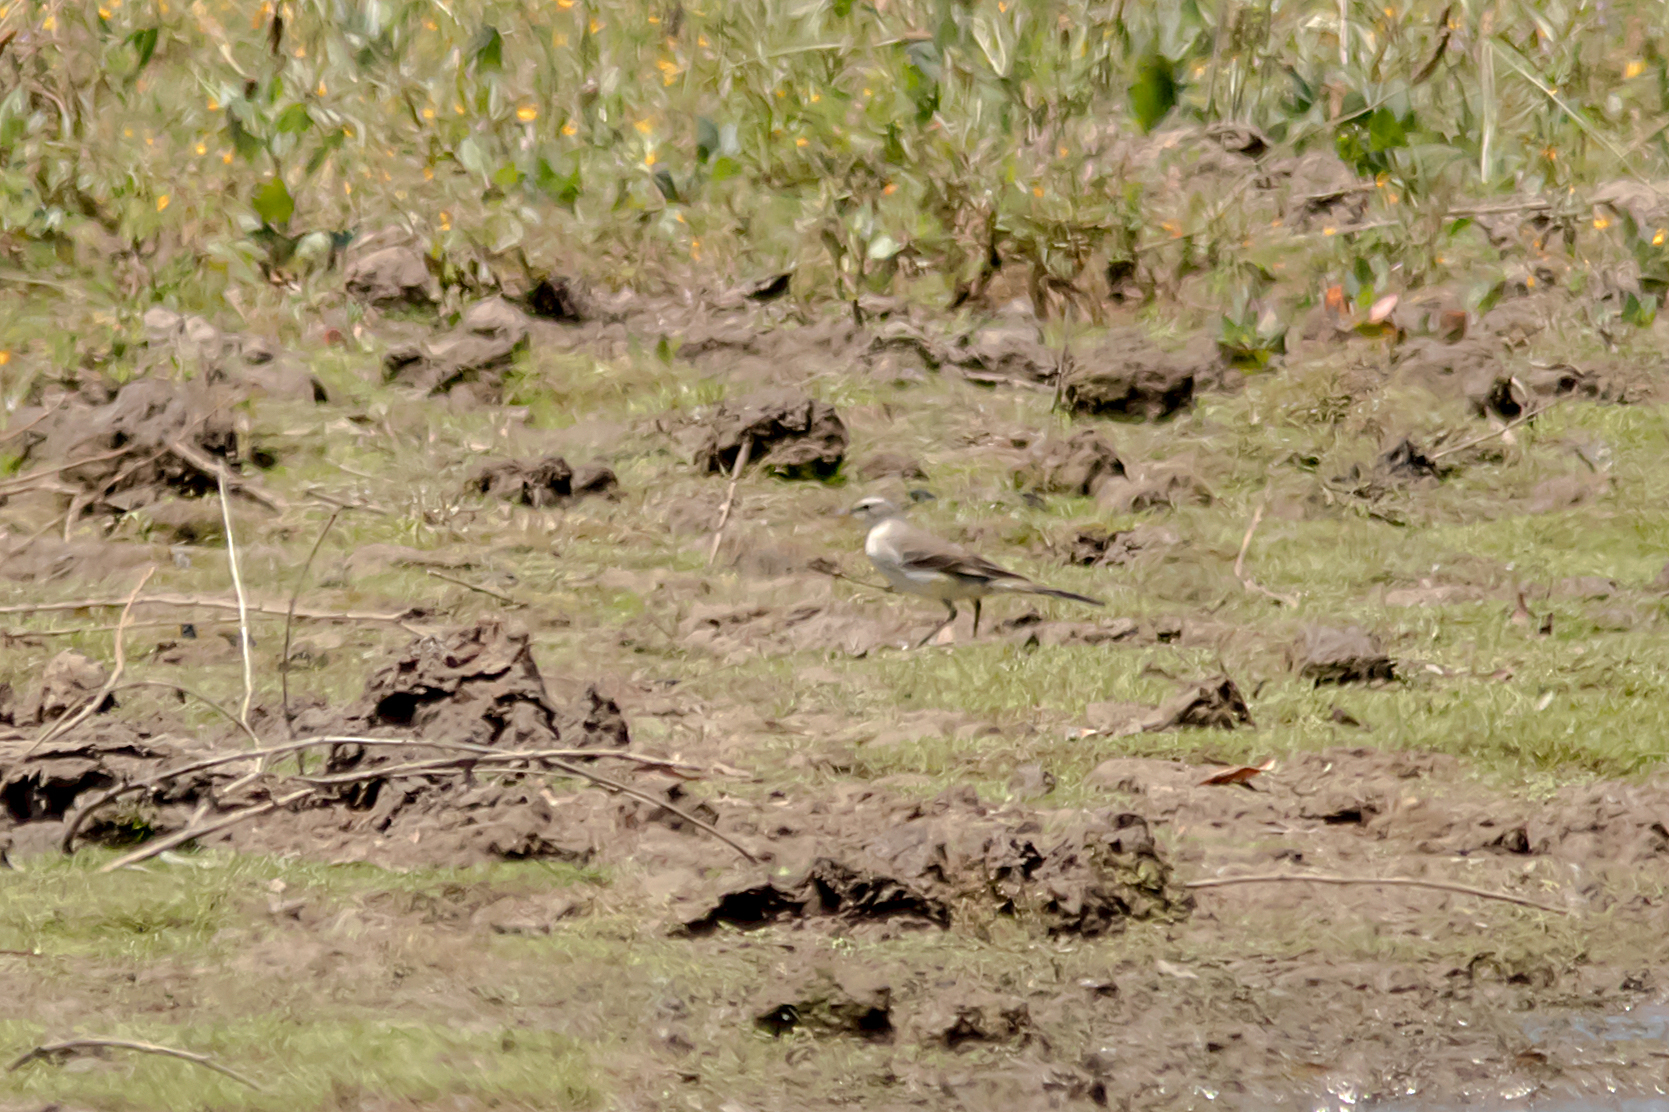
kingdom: Animalia
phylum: Chordata
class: Aves
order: Passeriformes
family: Motacillidae
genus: Motacilla
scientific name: Motacilla tschutschensis
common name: Eastern yellow wagtail
